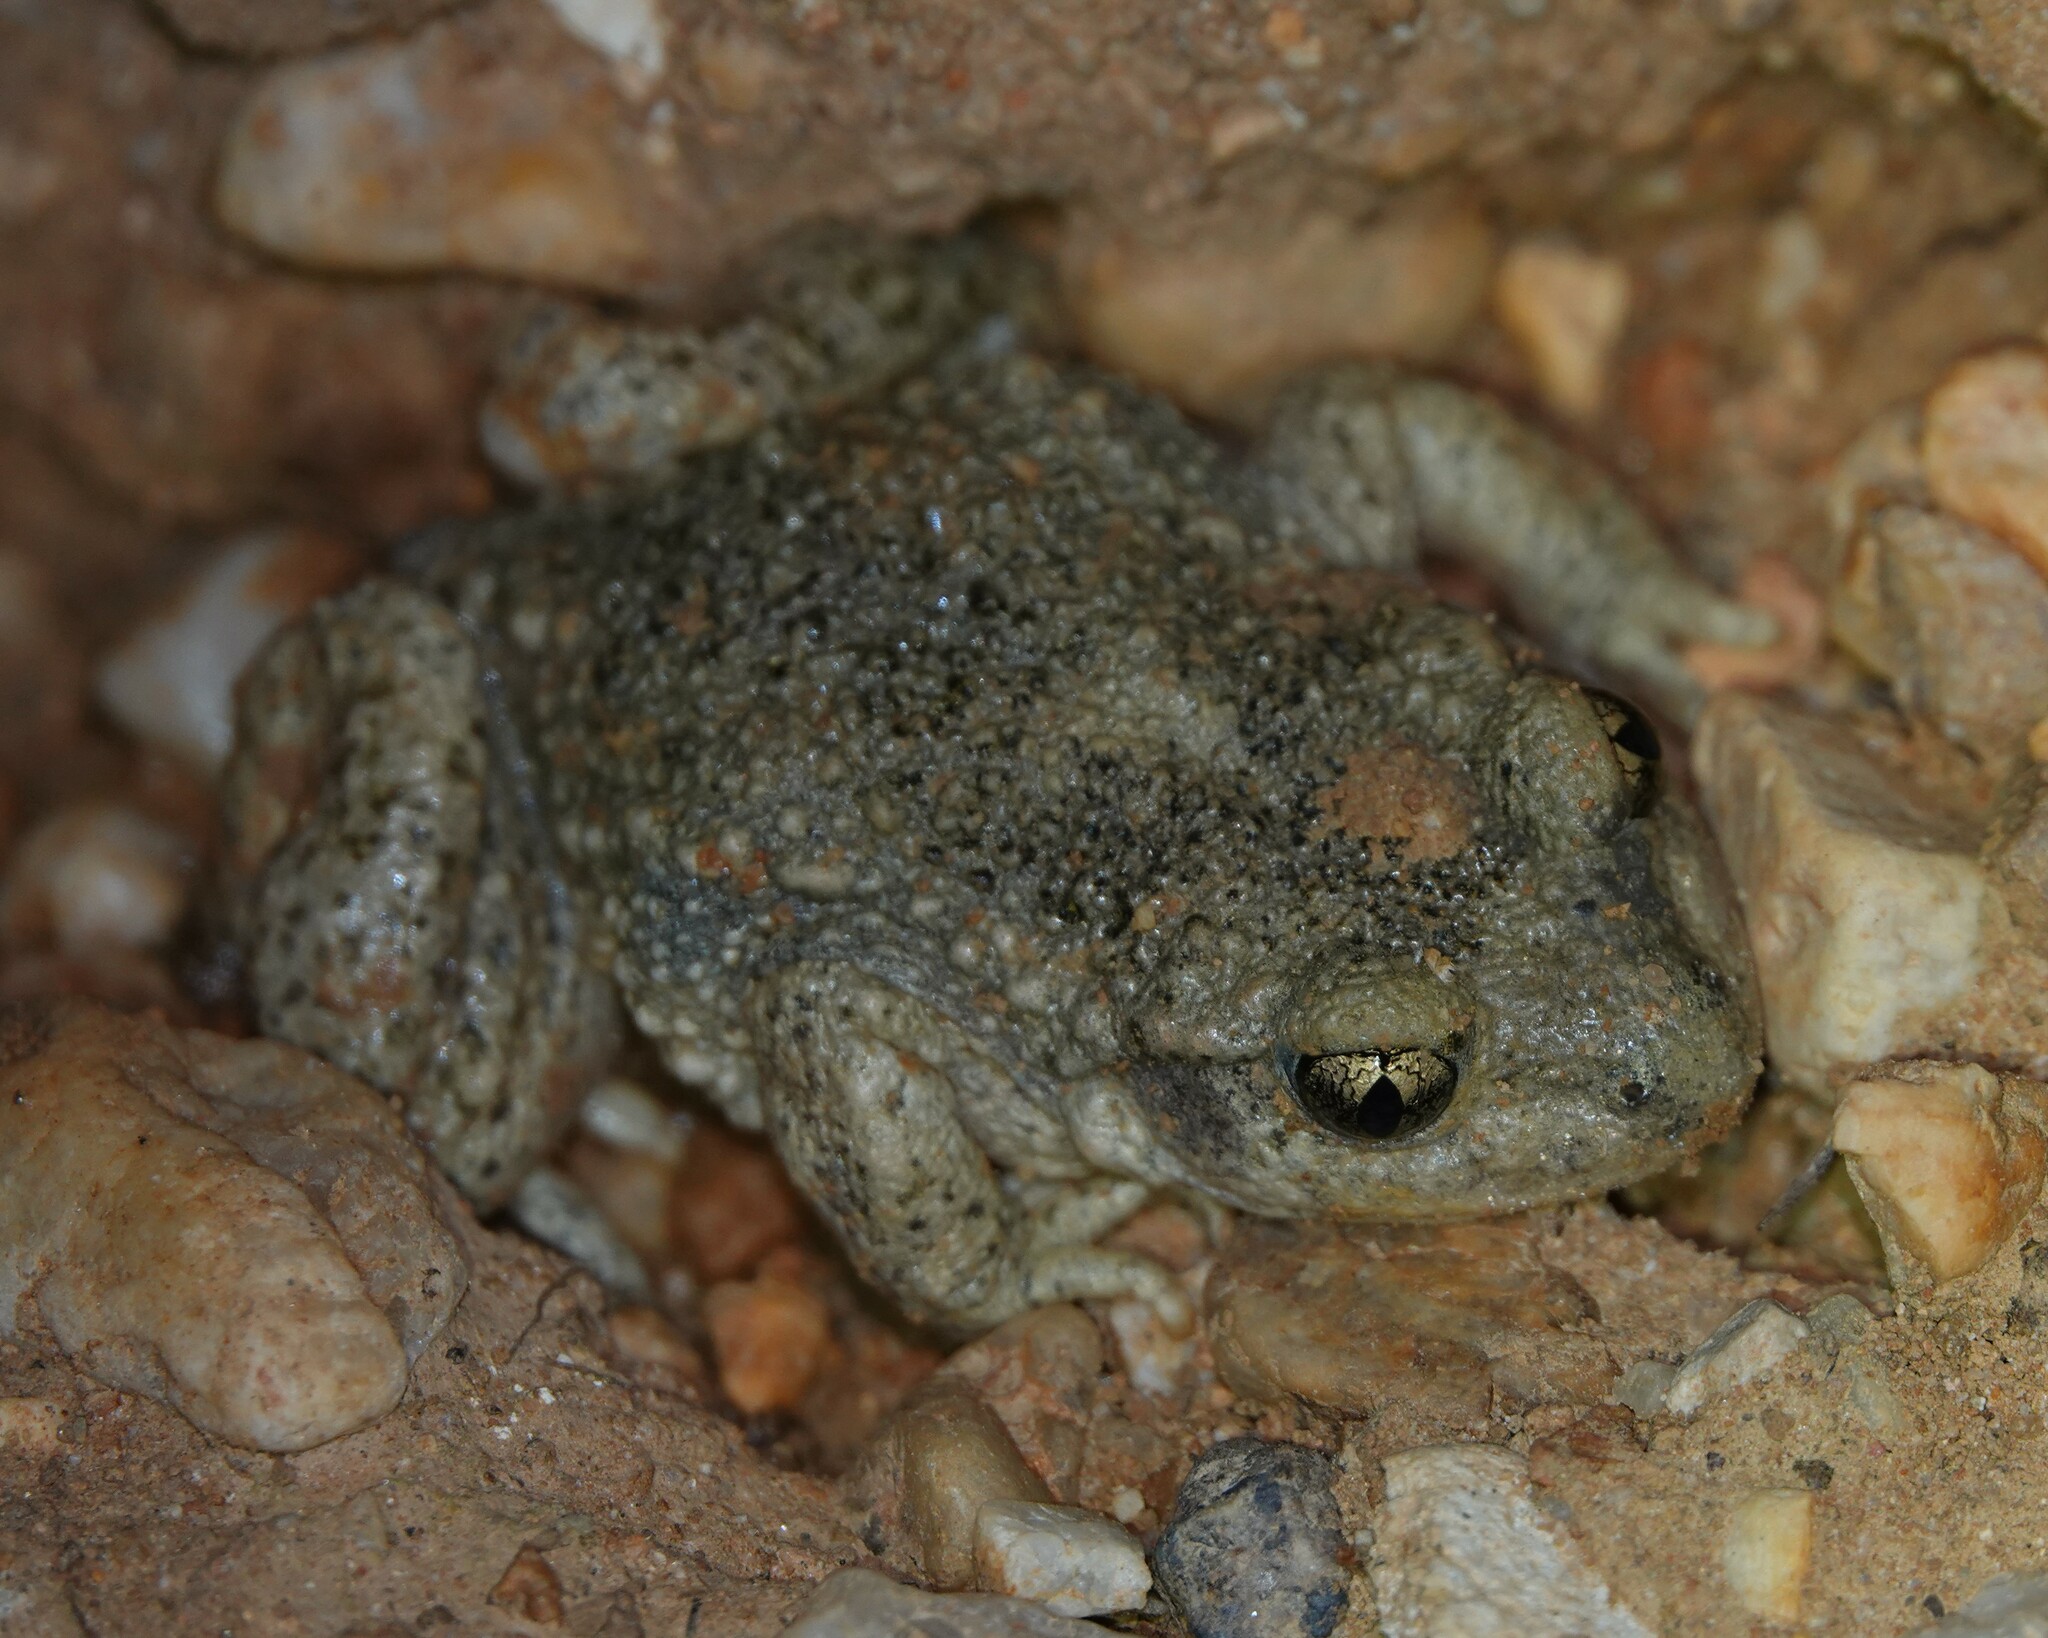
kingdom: Animalia
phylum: Chordata
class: Amphibia
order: Anura
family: Alytidae
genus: Alytes
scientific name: Alytes obstetricans
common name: Midwife toad
